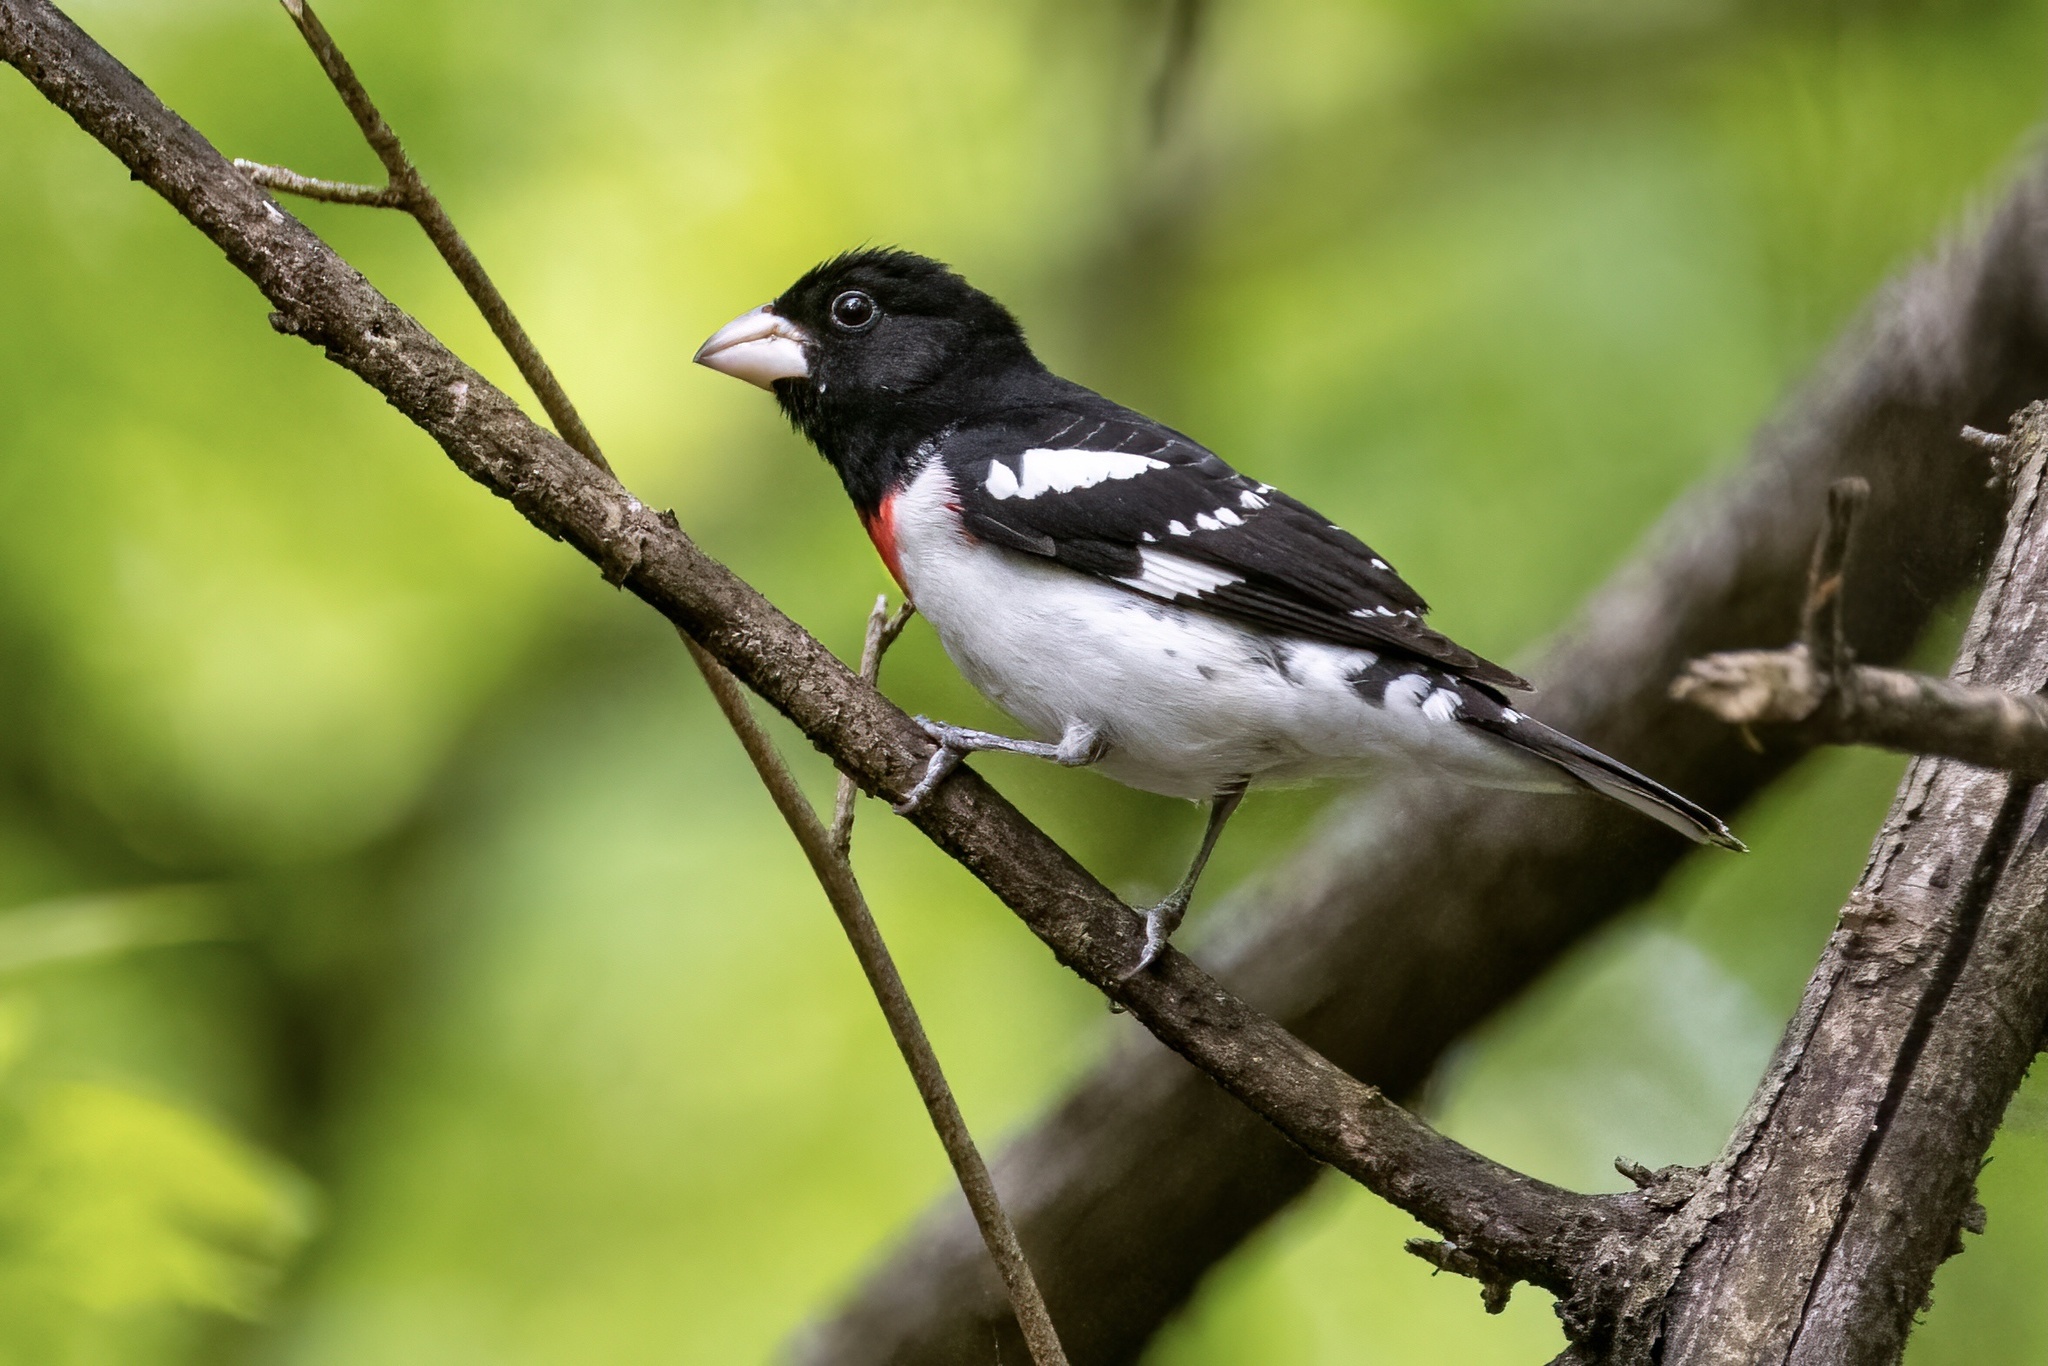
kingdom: Animalia
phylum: Chordata
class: Aves
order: Passeriformes
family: Cardinalidae
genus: Pheucticus
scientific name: Pheucticus ludovicianus
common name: Rose-breasted grosbeak
